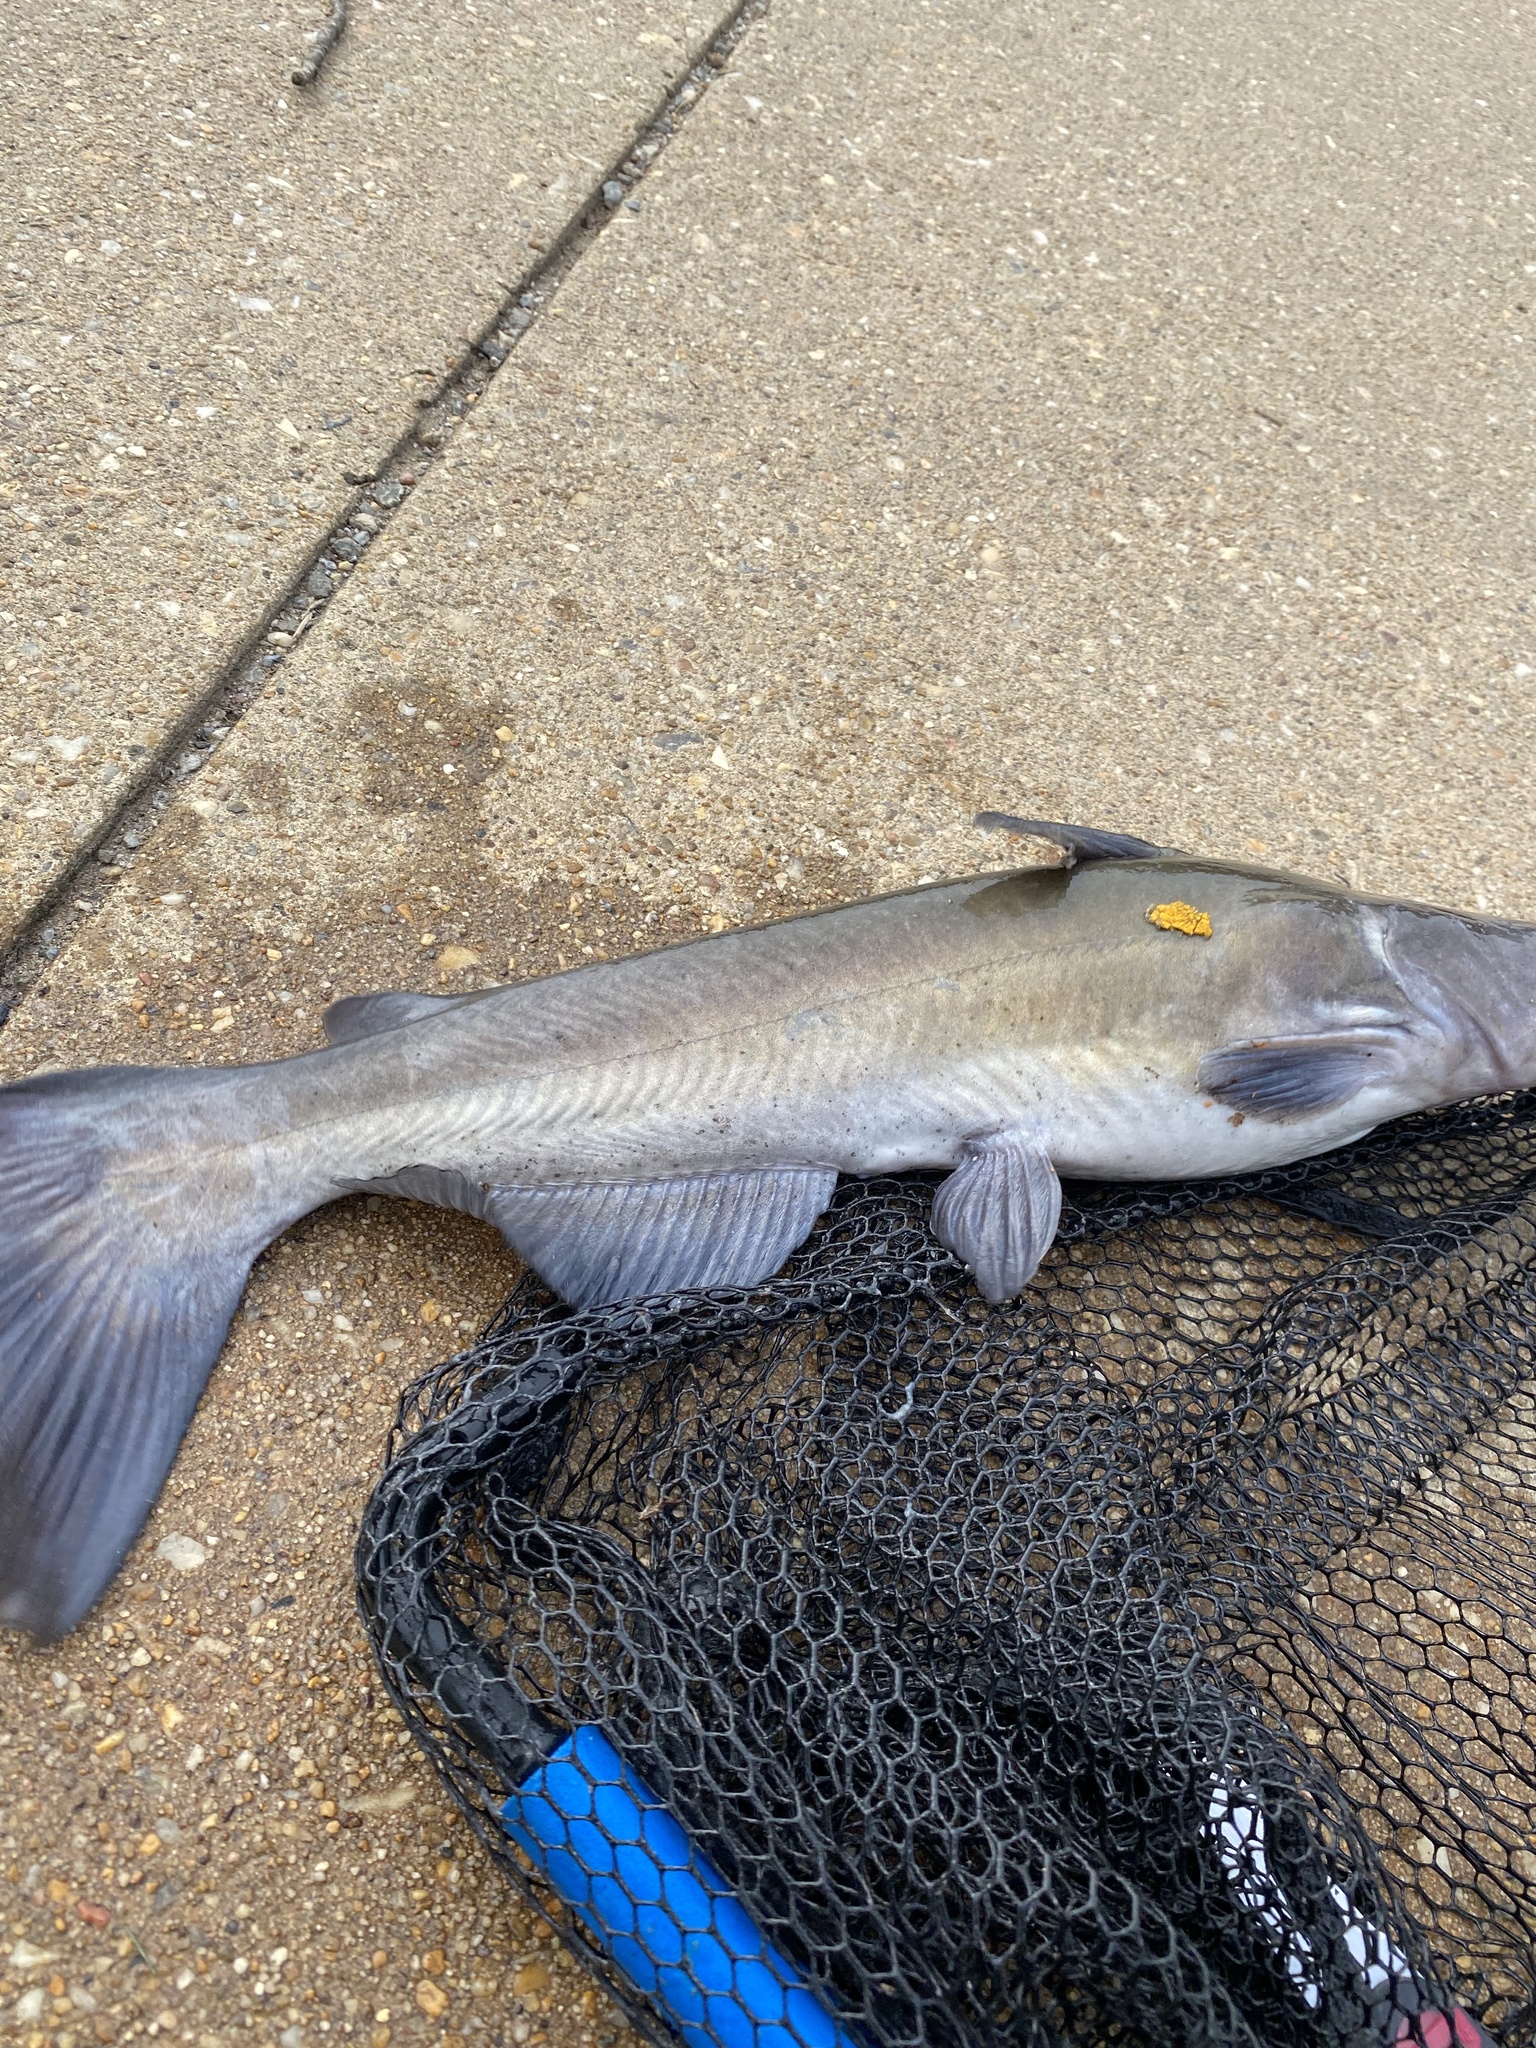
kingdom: Animalia
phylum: Chordata
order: Siluriformes
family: Ictaluridae
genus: Ictalurus
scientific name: Ictalurus punctatus
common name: Channel catfish
